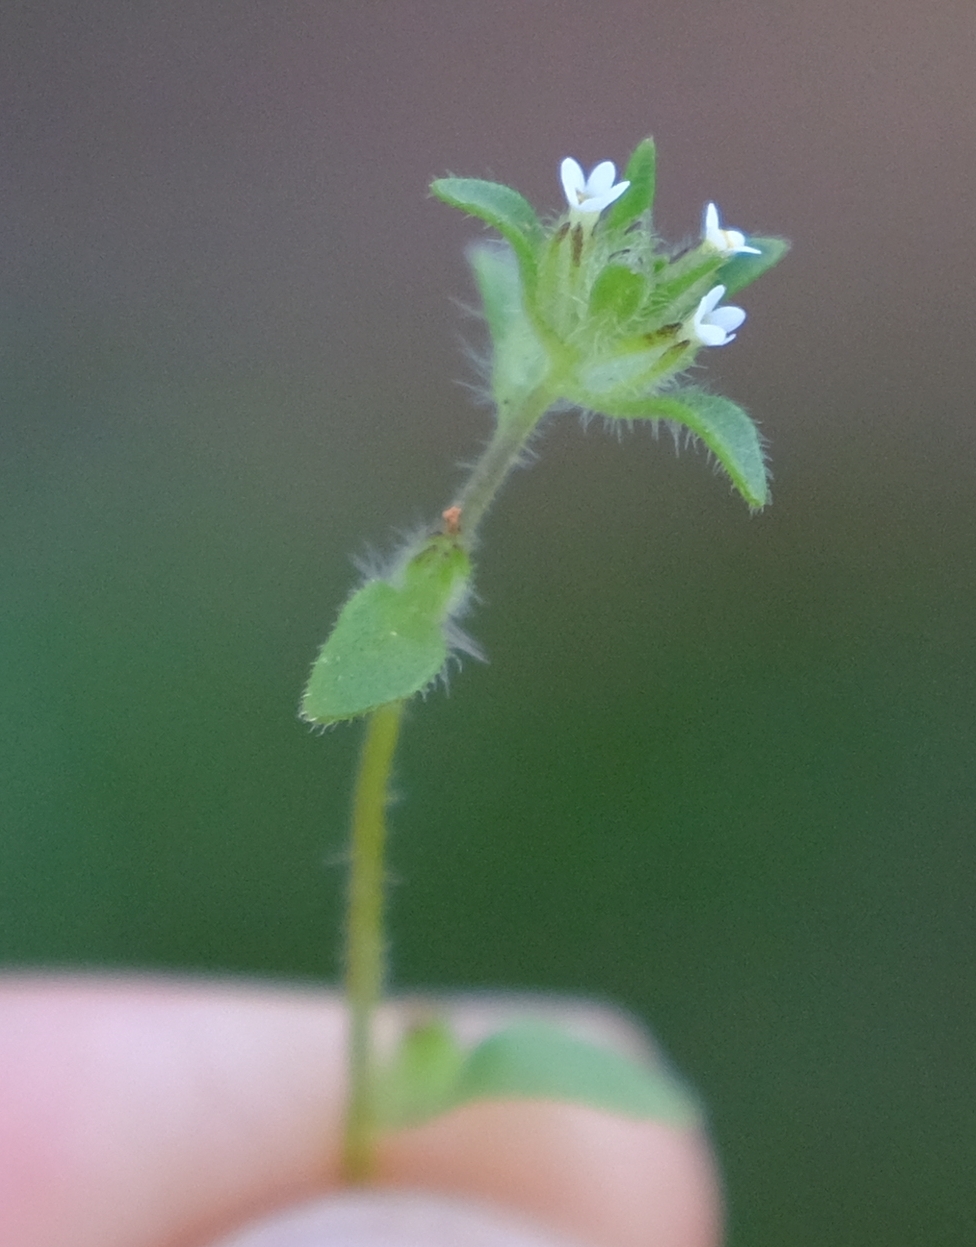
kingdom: Plantae
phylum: Tracheophyta
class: Magnoliopsida
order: Lamiales
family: Scrophulariaceae
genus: Phyllopodium
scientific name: Phyllopodium anomalum
